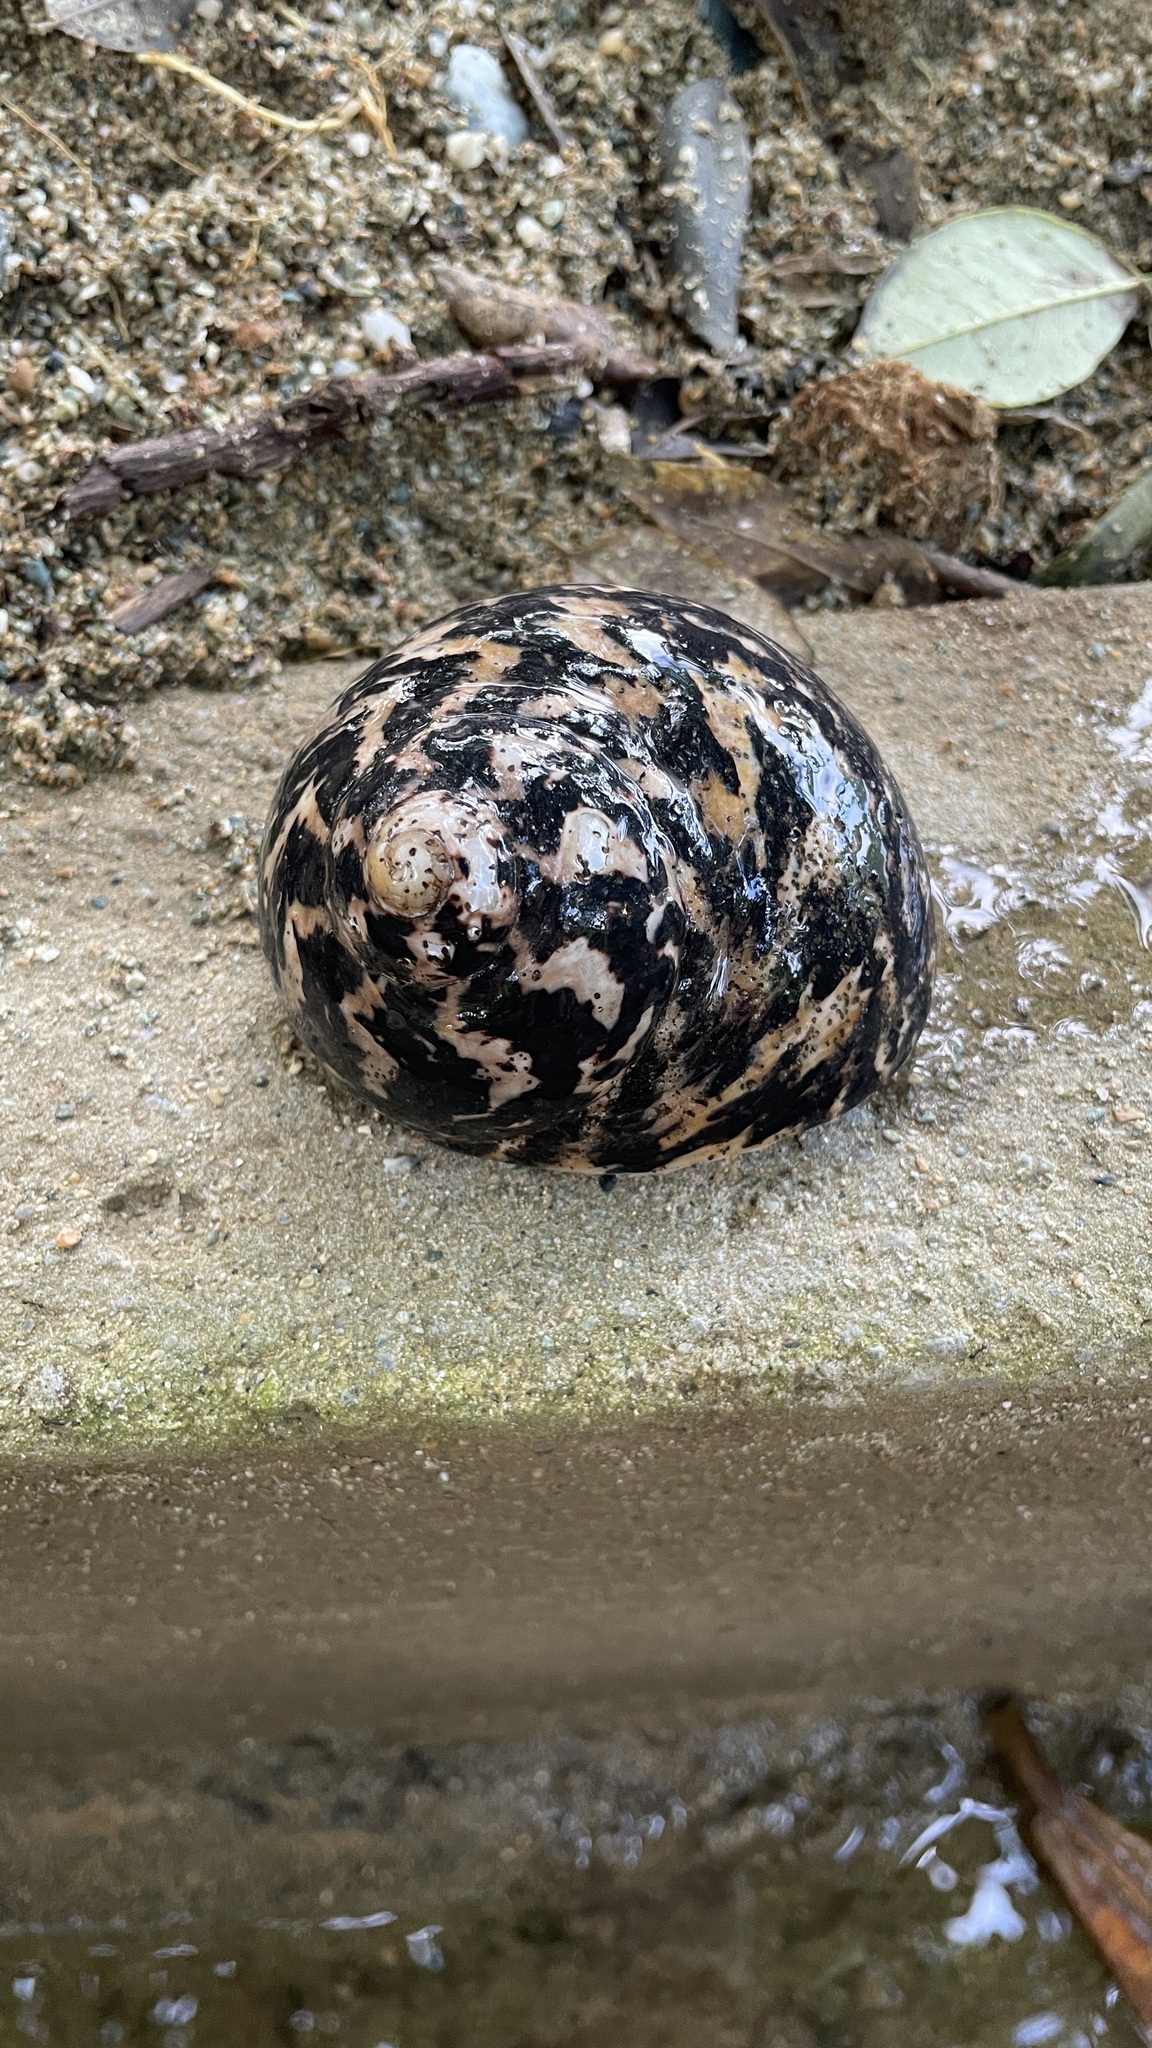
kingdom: Animalia
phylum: Mollusca
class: Gastropoda
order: Trochida
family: Tegulidae
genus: Cittarium
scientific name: Cittarium pica
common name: West indian topshell
